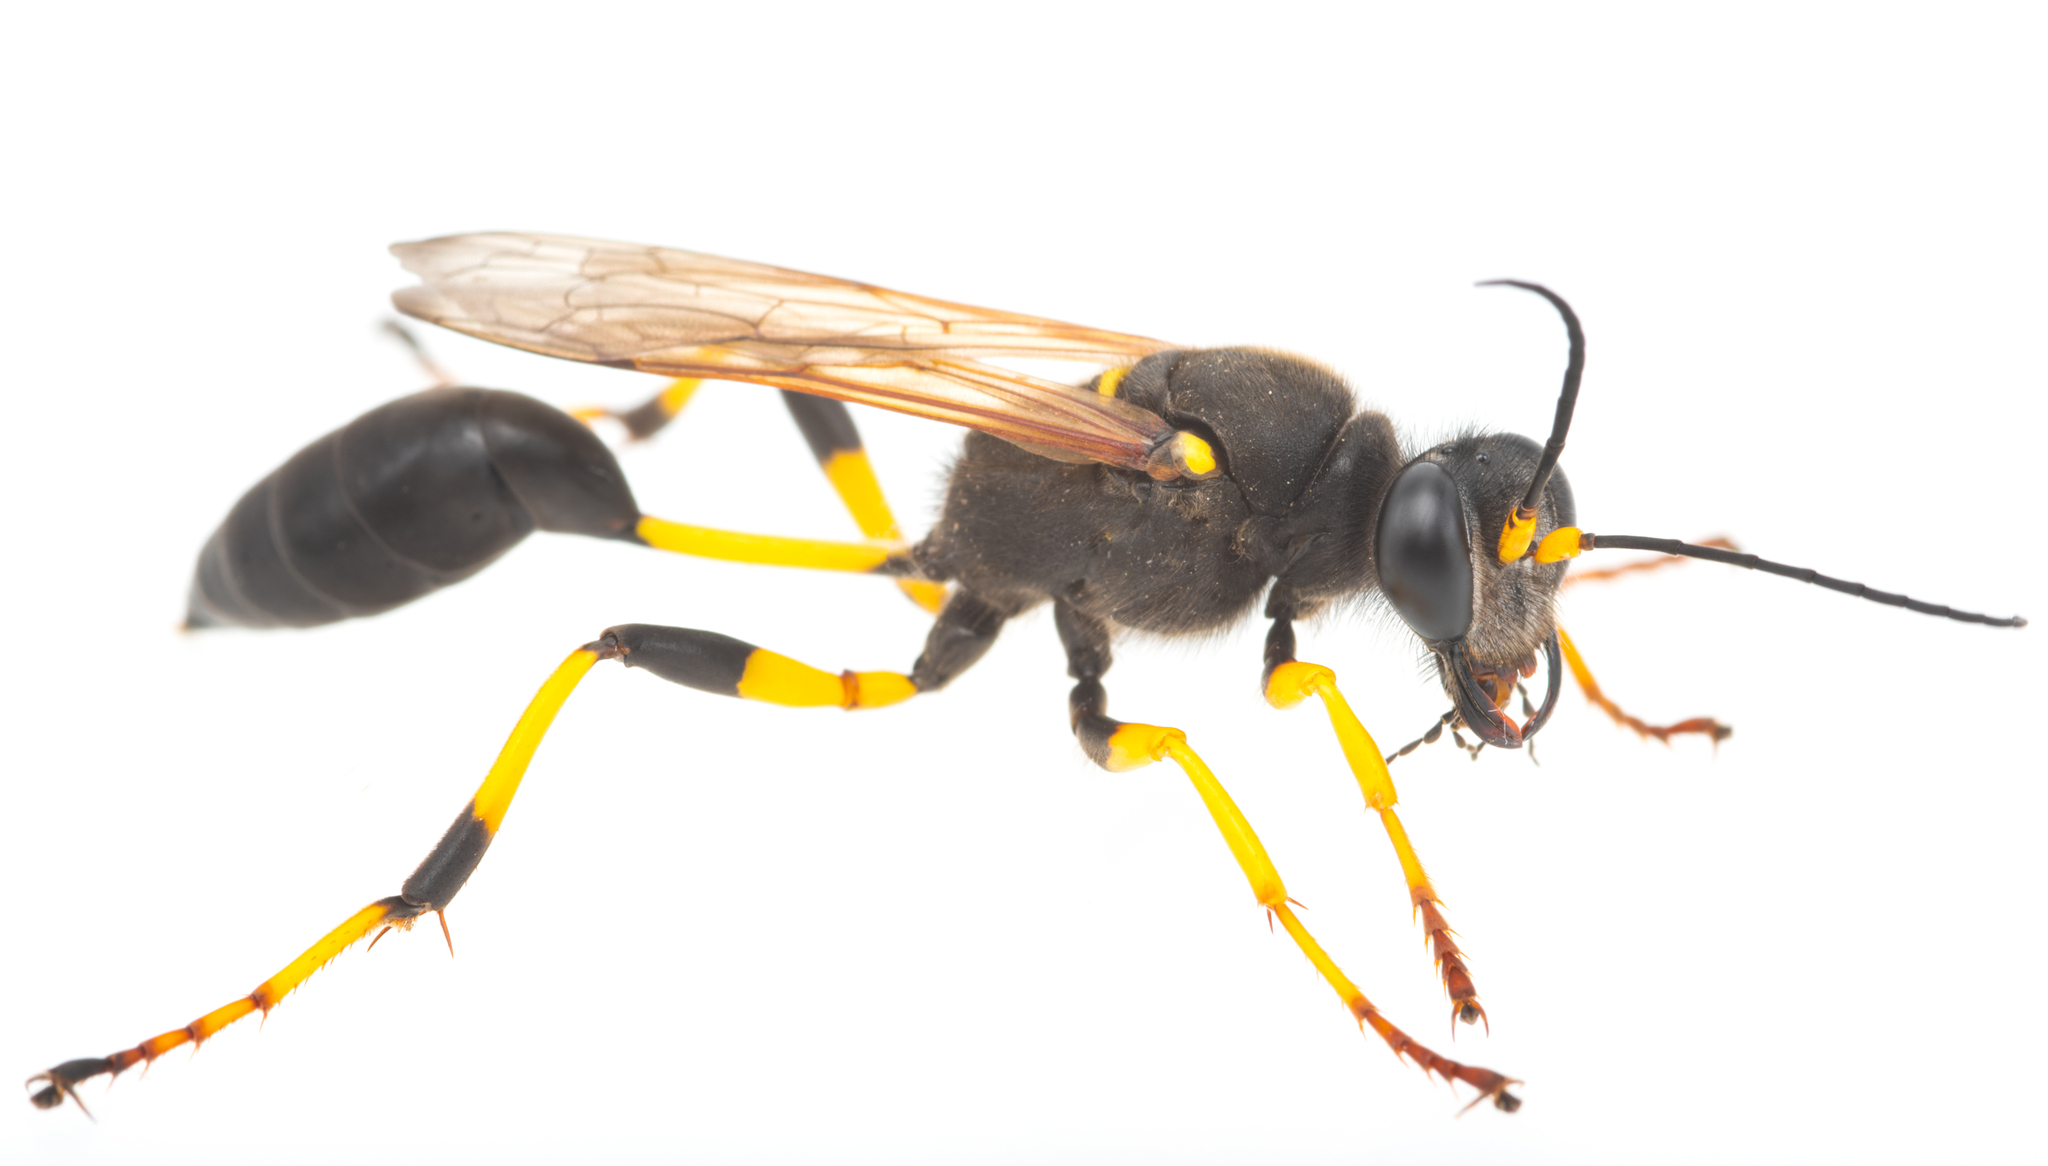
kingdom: Animalia
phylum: Arthropoda
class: Insecta
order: Hymenoptera
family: Sphecidae
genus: Sceliphron
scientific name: Sceliphron destillatorium
